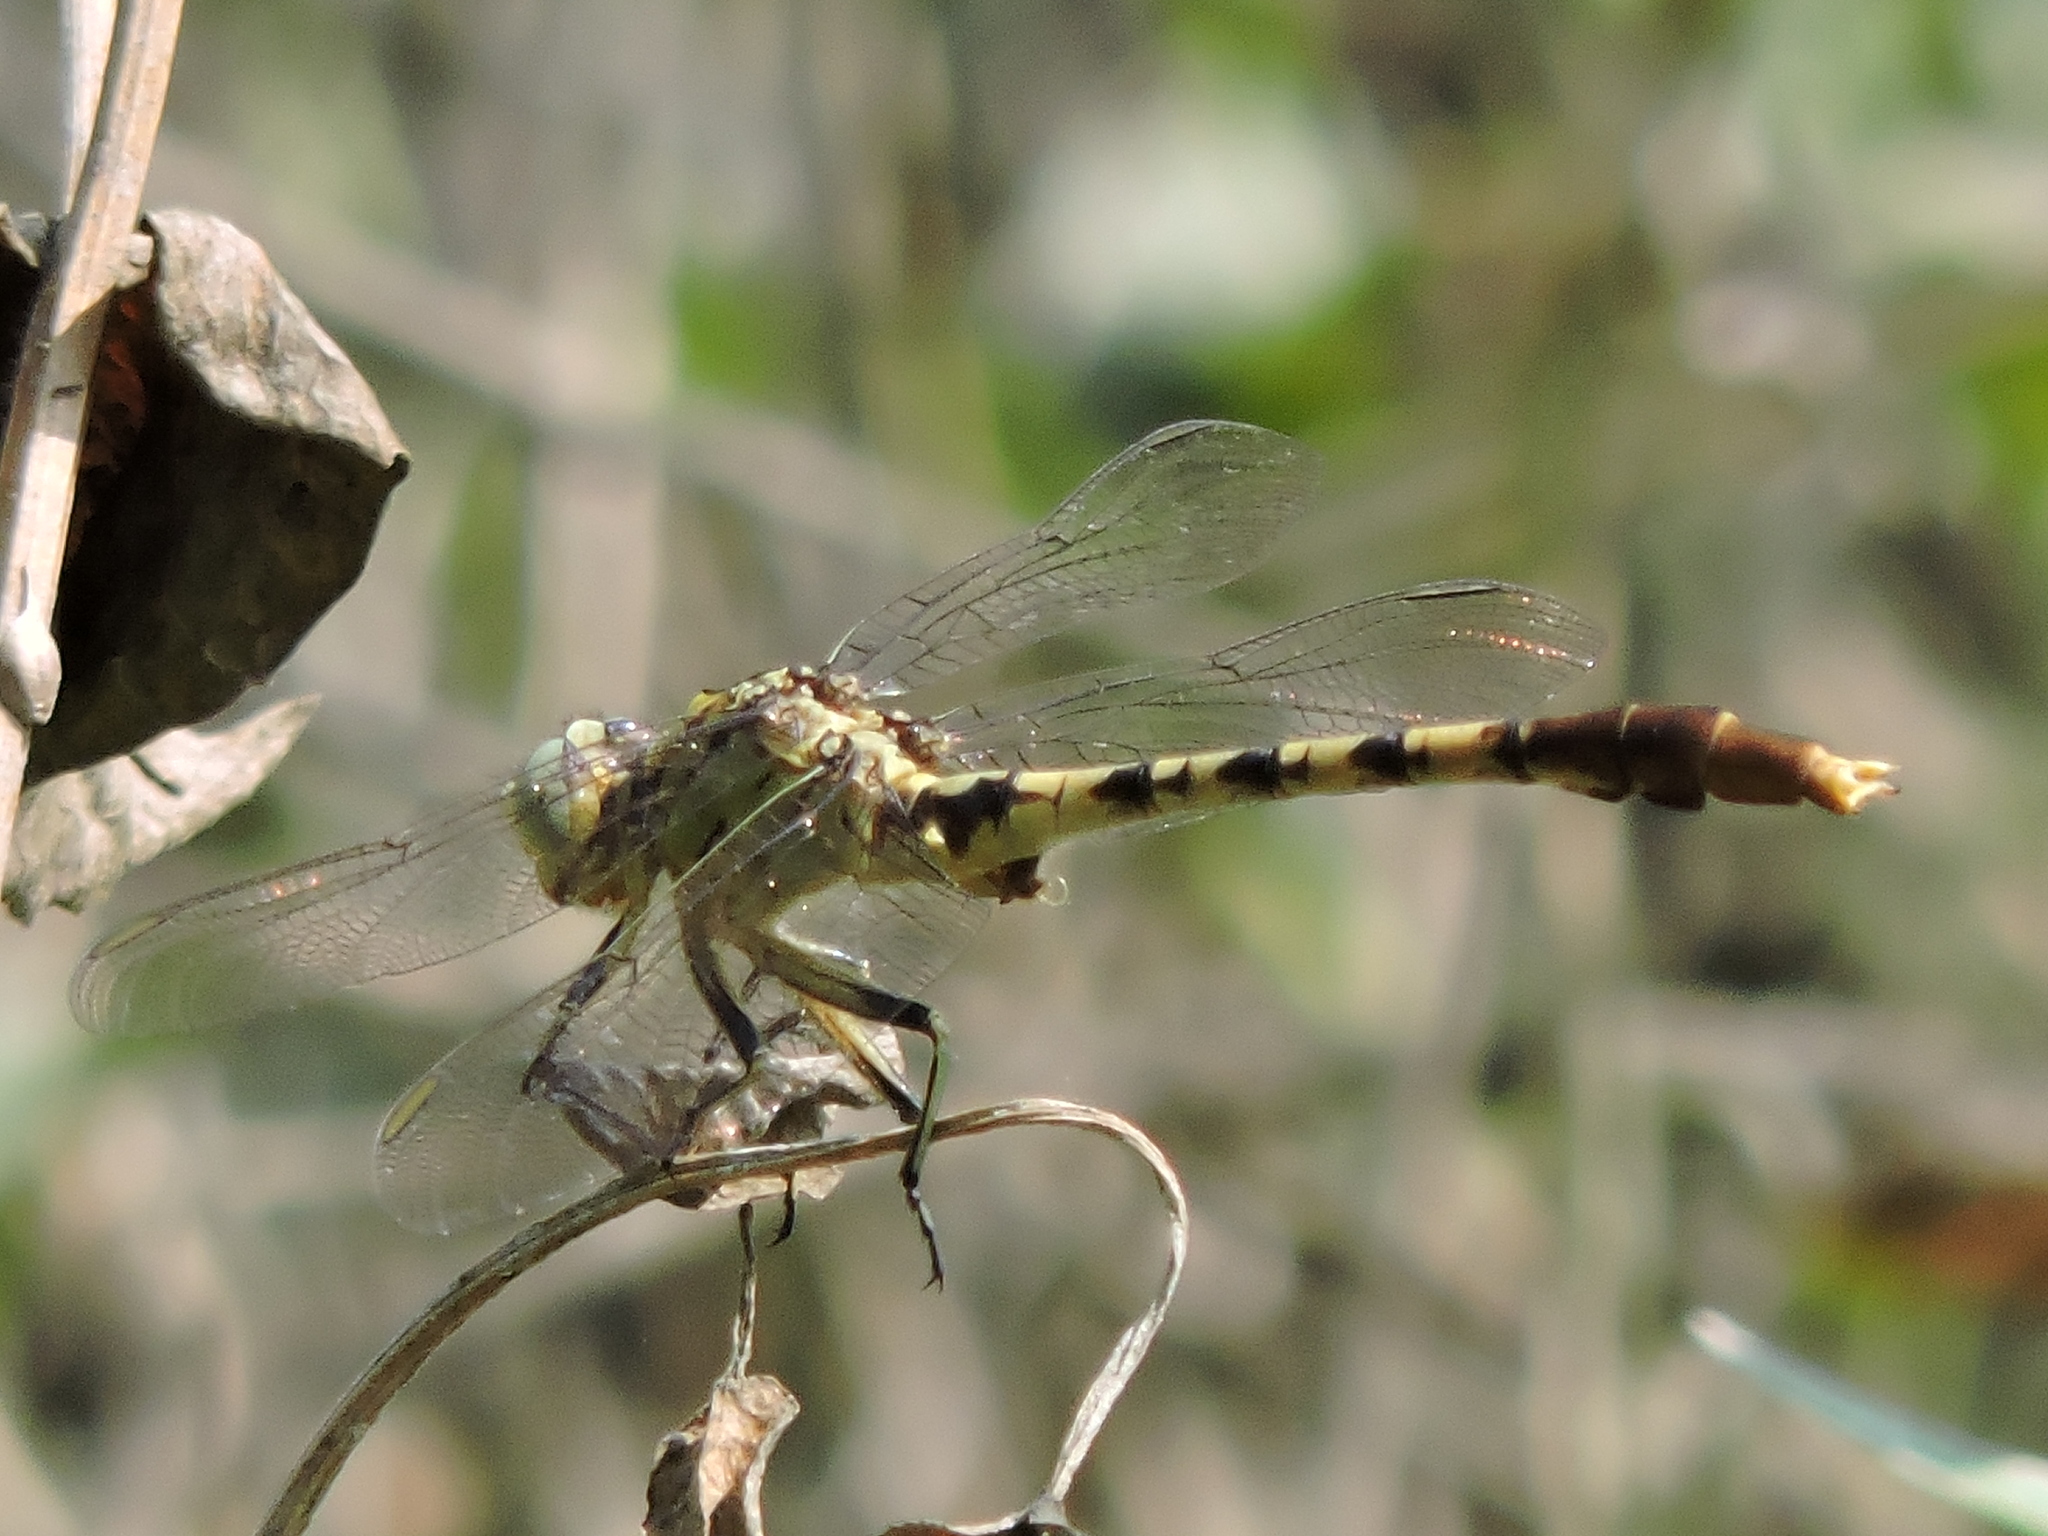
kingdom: Animalia
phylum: Arthropoda
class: Insecta
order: Odonata
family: Gomphidae
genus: Arigomphus
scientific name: Arigomphus submedianus
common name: Jade clubtail
